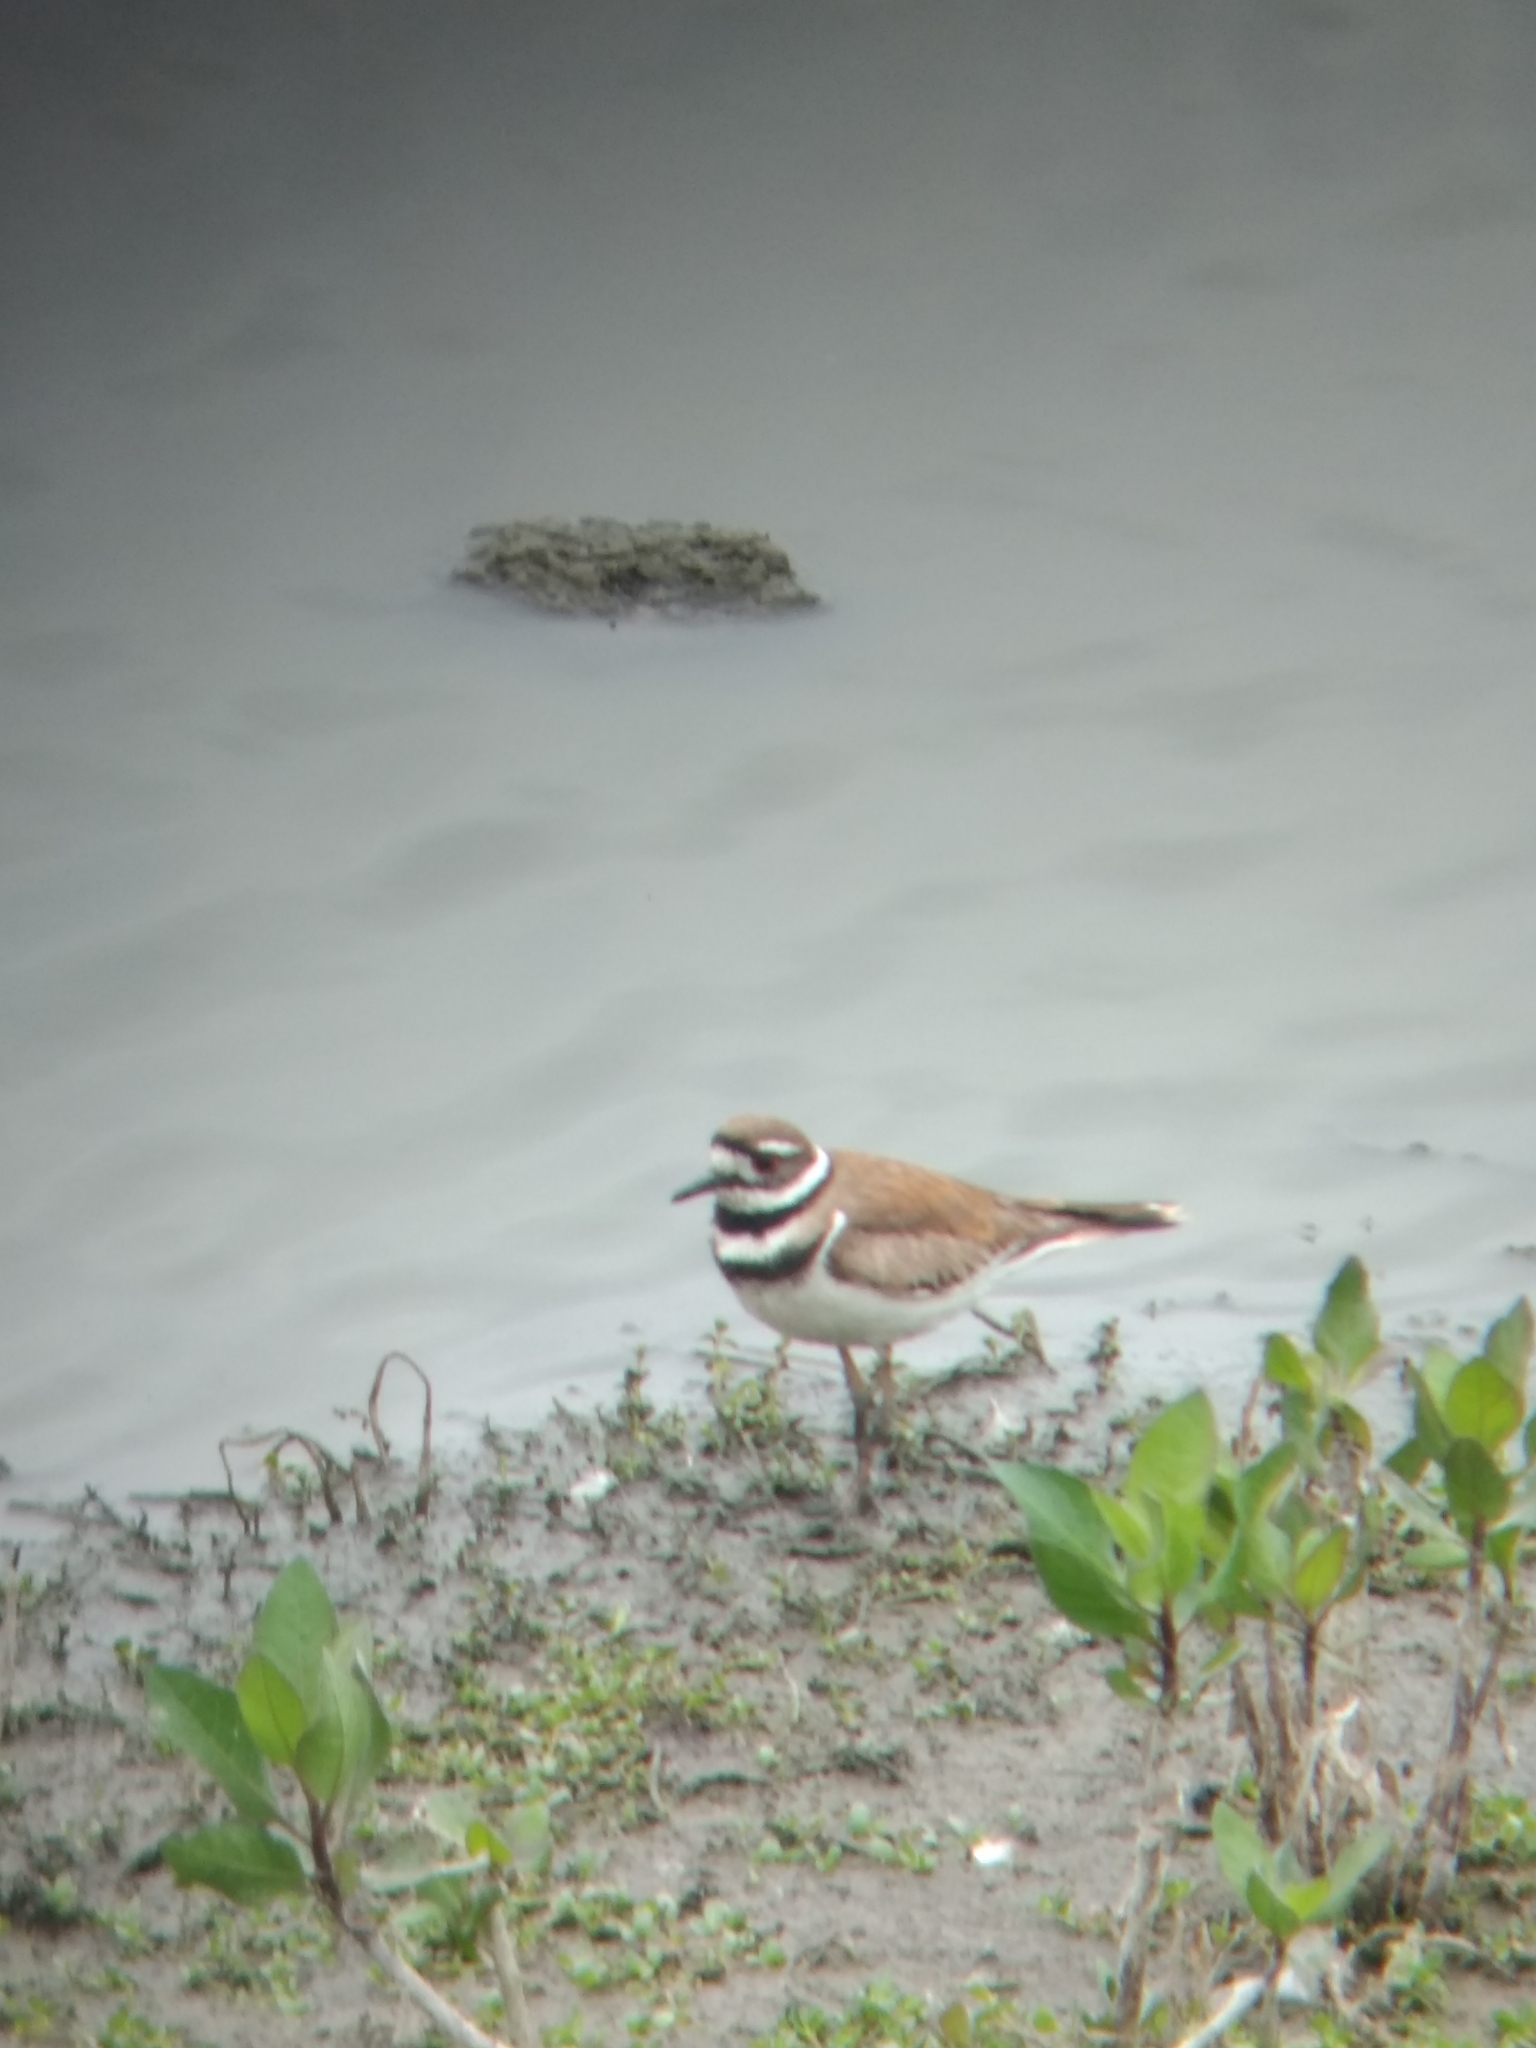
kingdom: Animalia
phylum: Chordata
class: Aves
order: Charadriiformes
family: Charadriidae
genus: Charadrius
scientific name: Charadrius vociferus
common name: Killdeer
